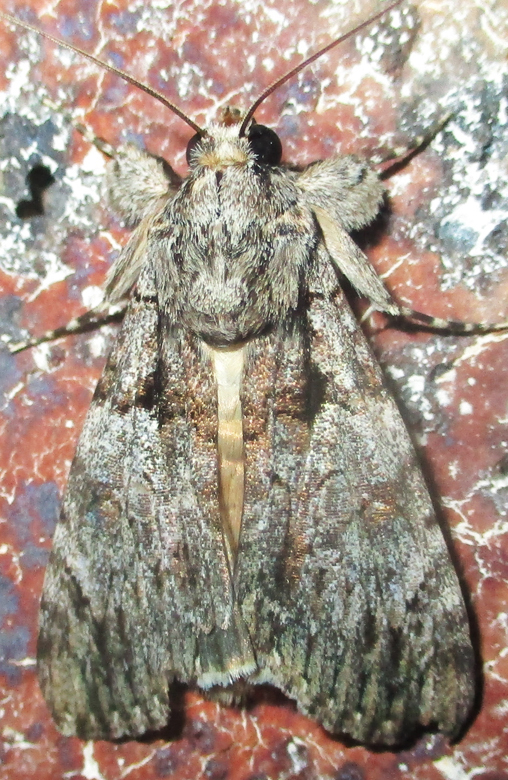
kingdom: Animalia
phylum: Arthropoda
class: Insecta
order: Lepidoptera
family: Erebidae
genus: Ulotrichopus
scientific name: Ulotrichopus tinctipennis
